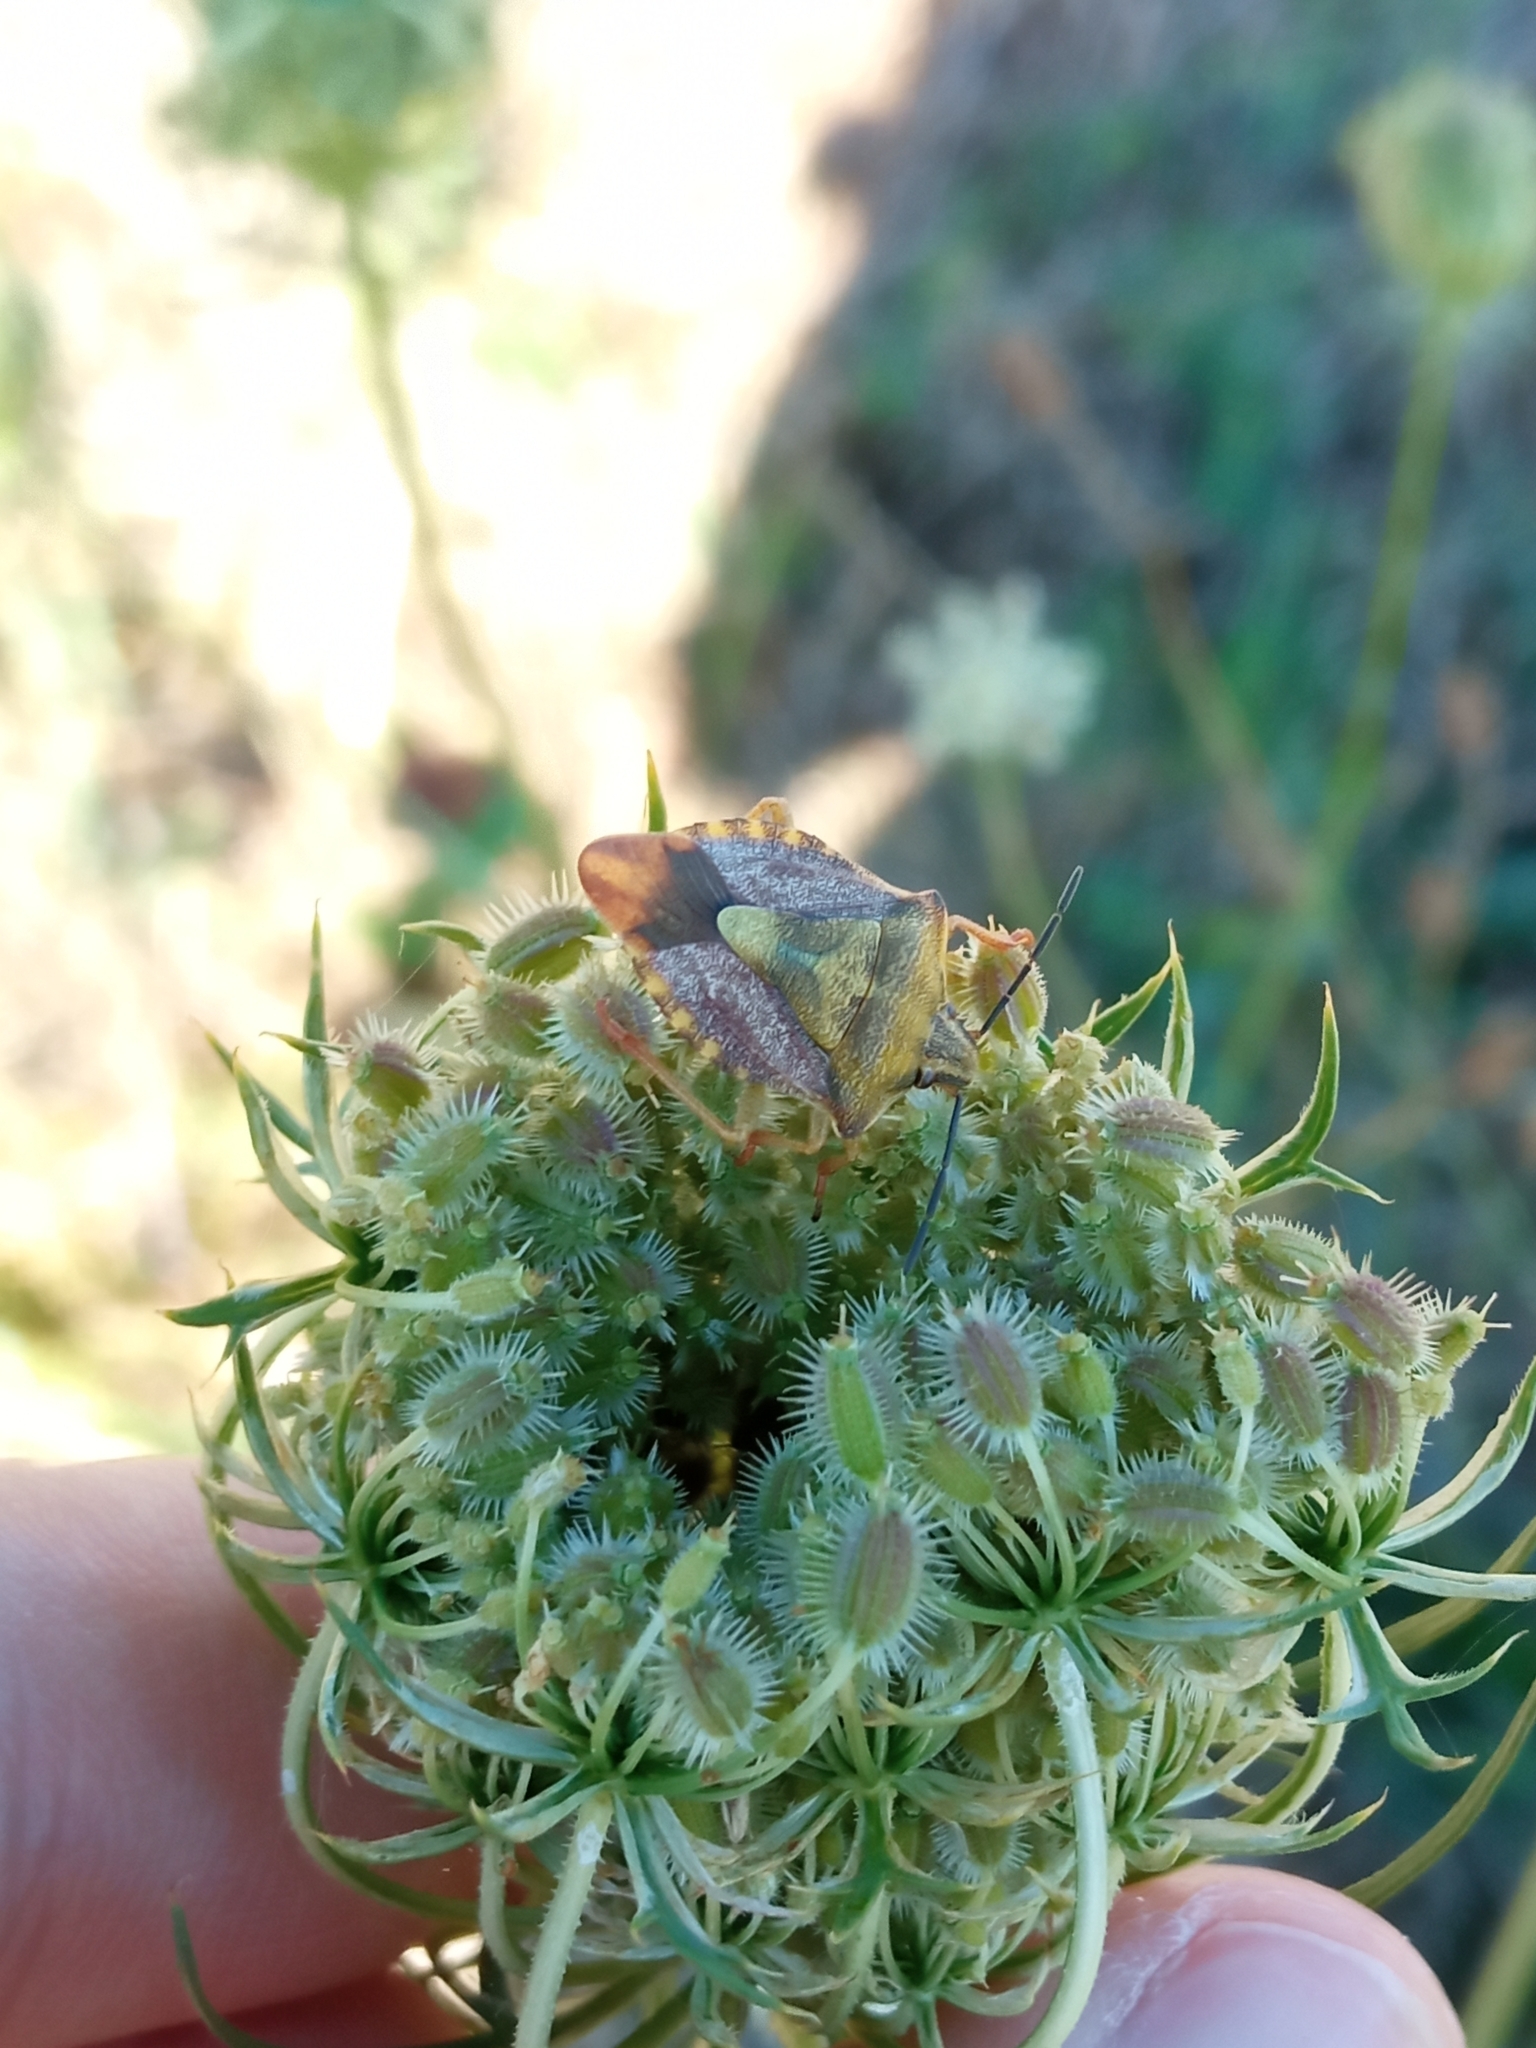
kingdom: Animalia
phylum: Arthropoda
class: Insecta
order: Hemiptera
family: Pentatomidae
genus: Carpocoris
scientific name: Carpocoris purpureipennis
